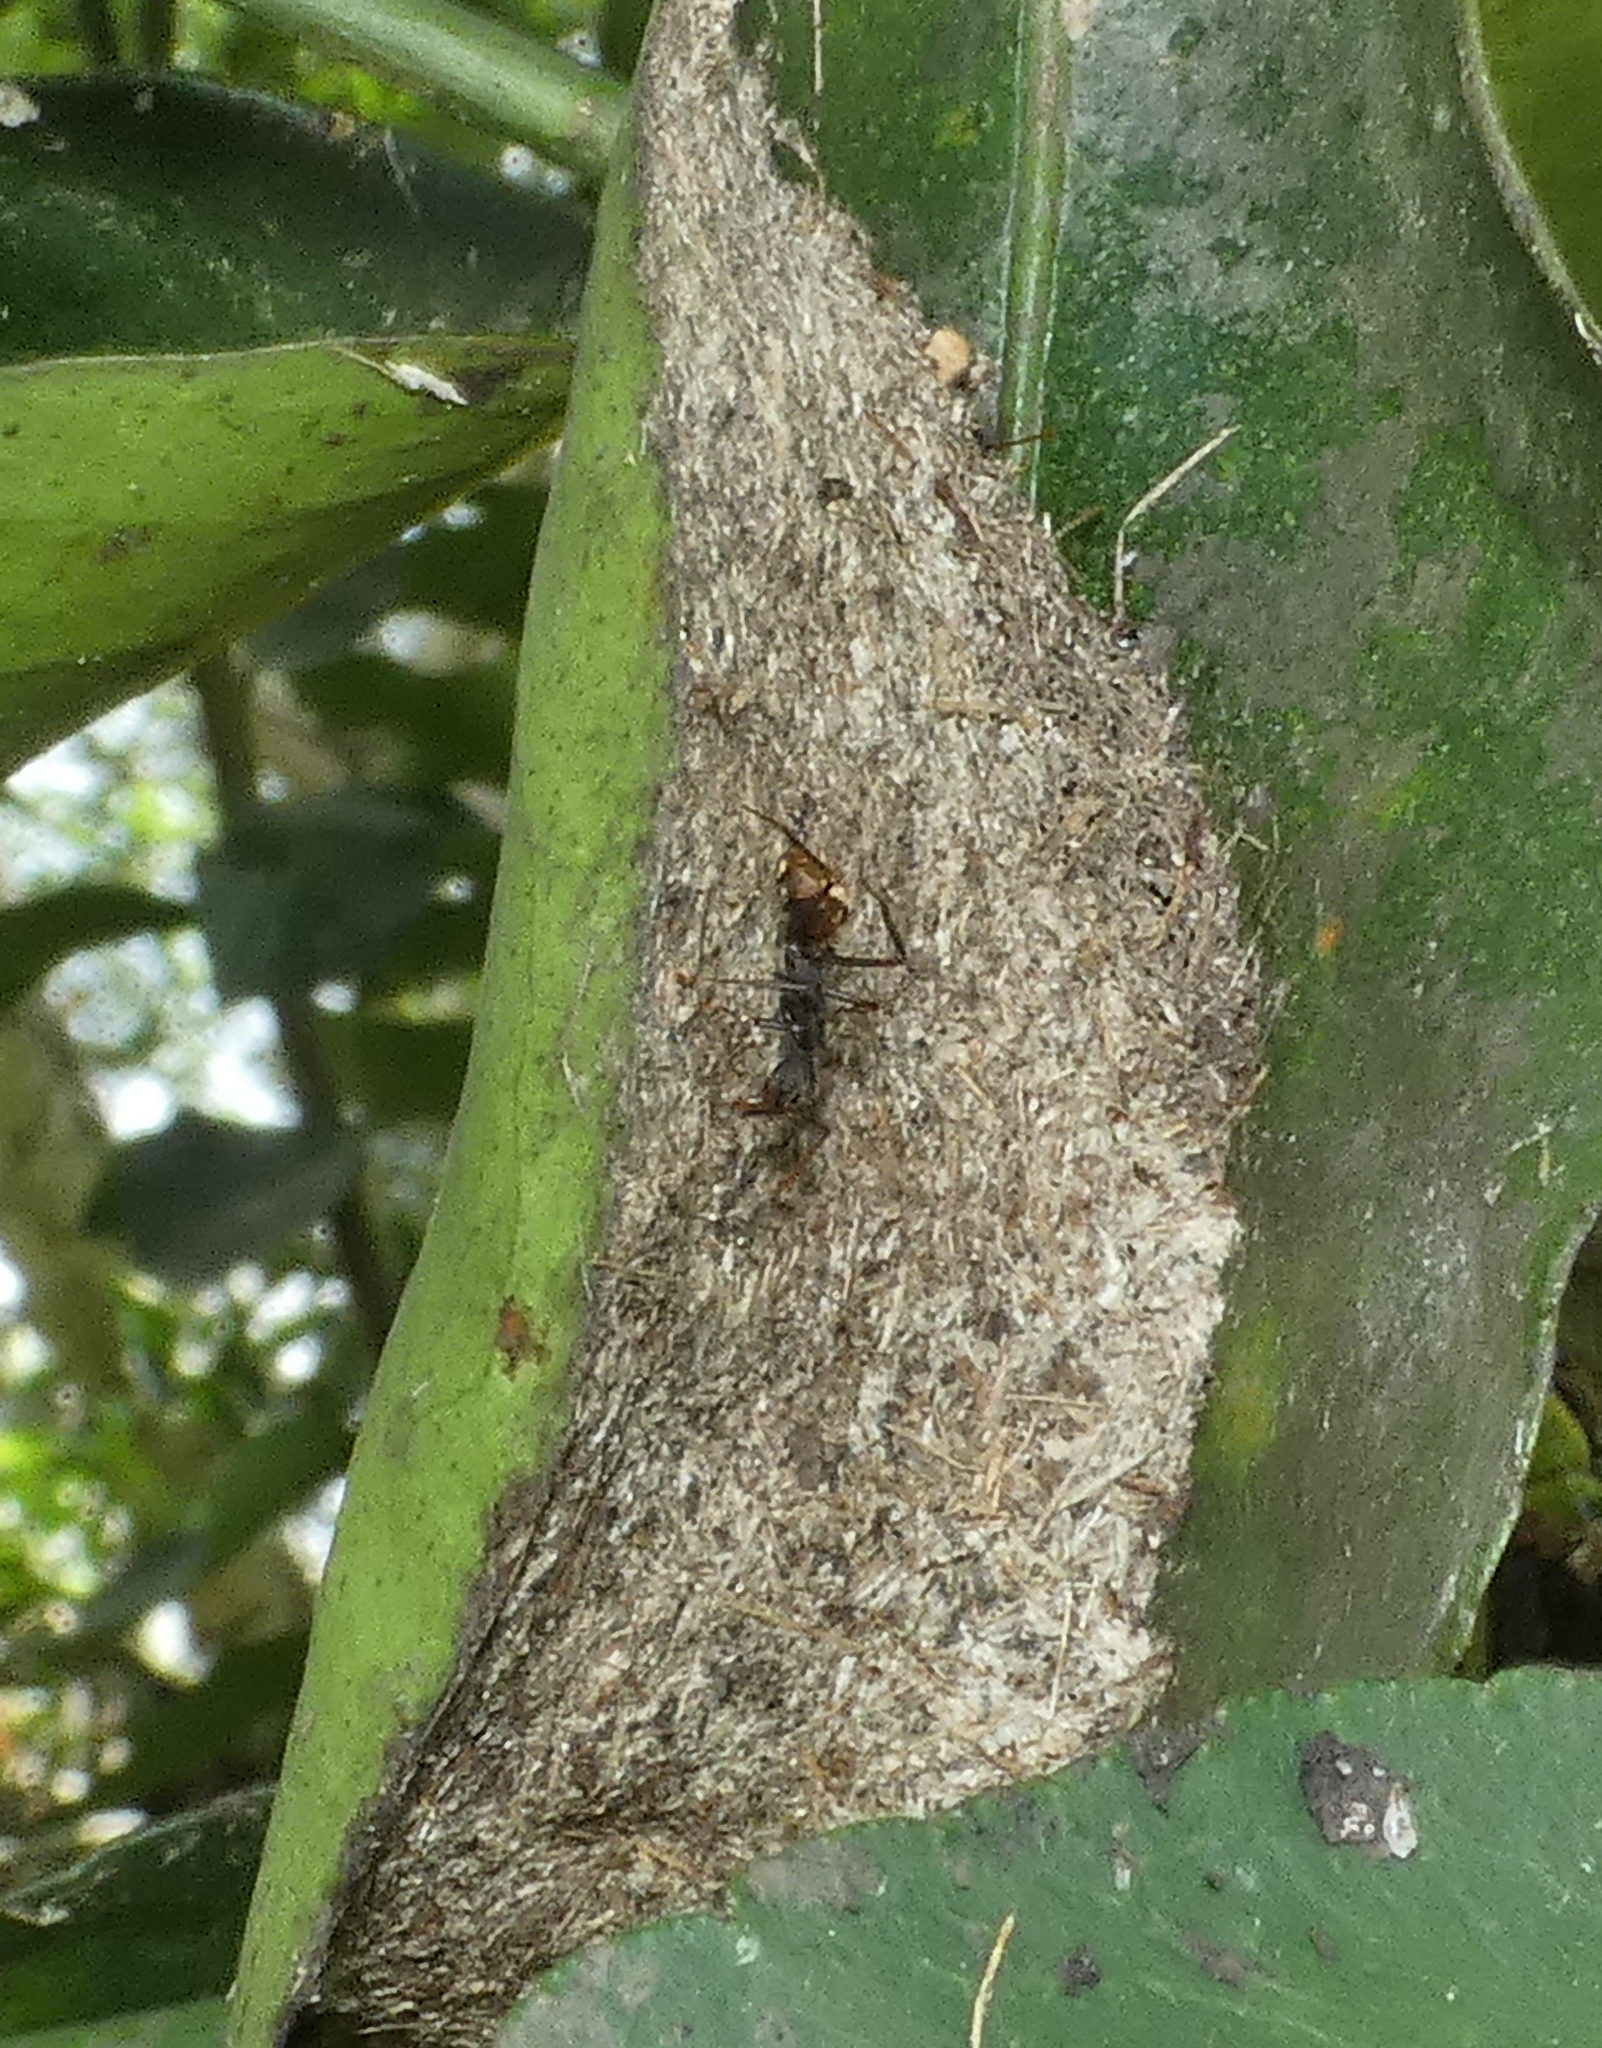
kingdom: Animalia
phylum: Arthropoda
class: Insecta
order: Hymenoptera
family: Formicidae
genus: Dolichoderus
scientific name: Dolichoderus bidens
